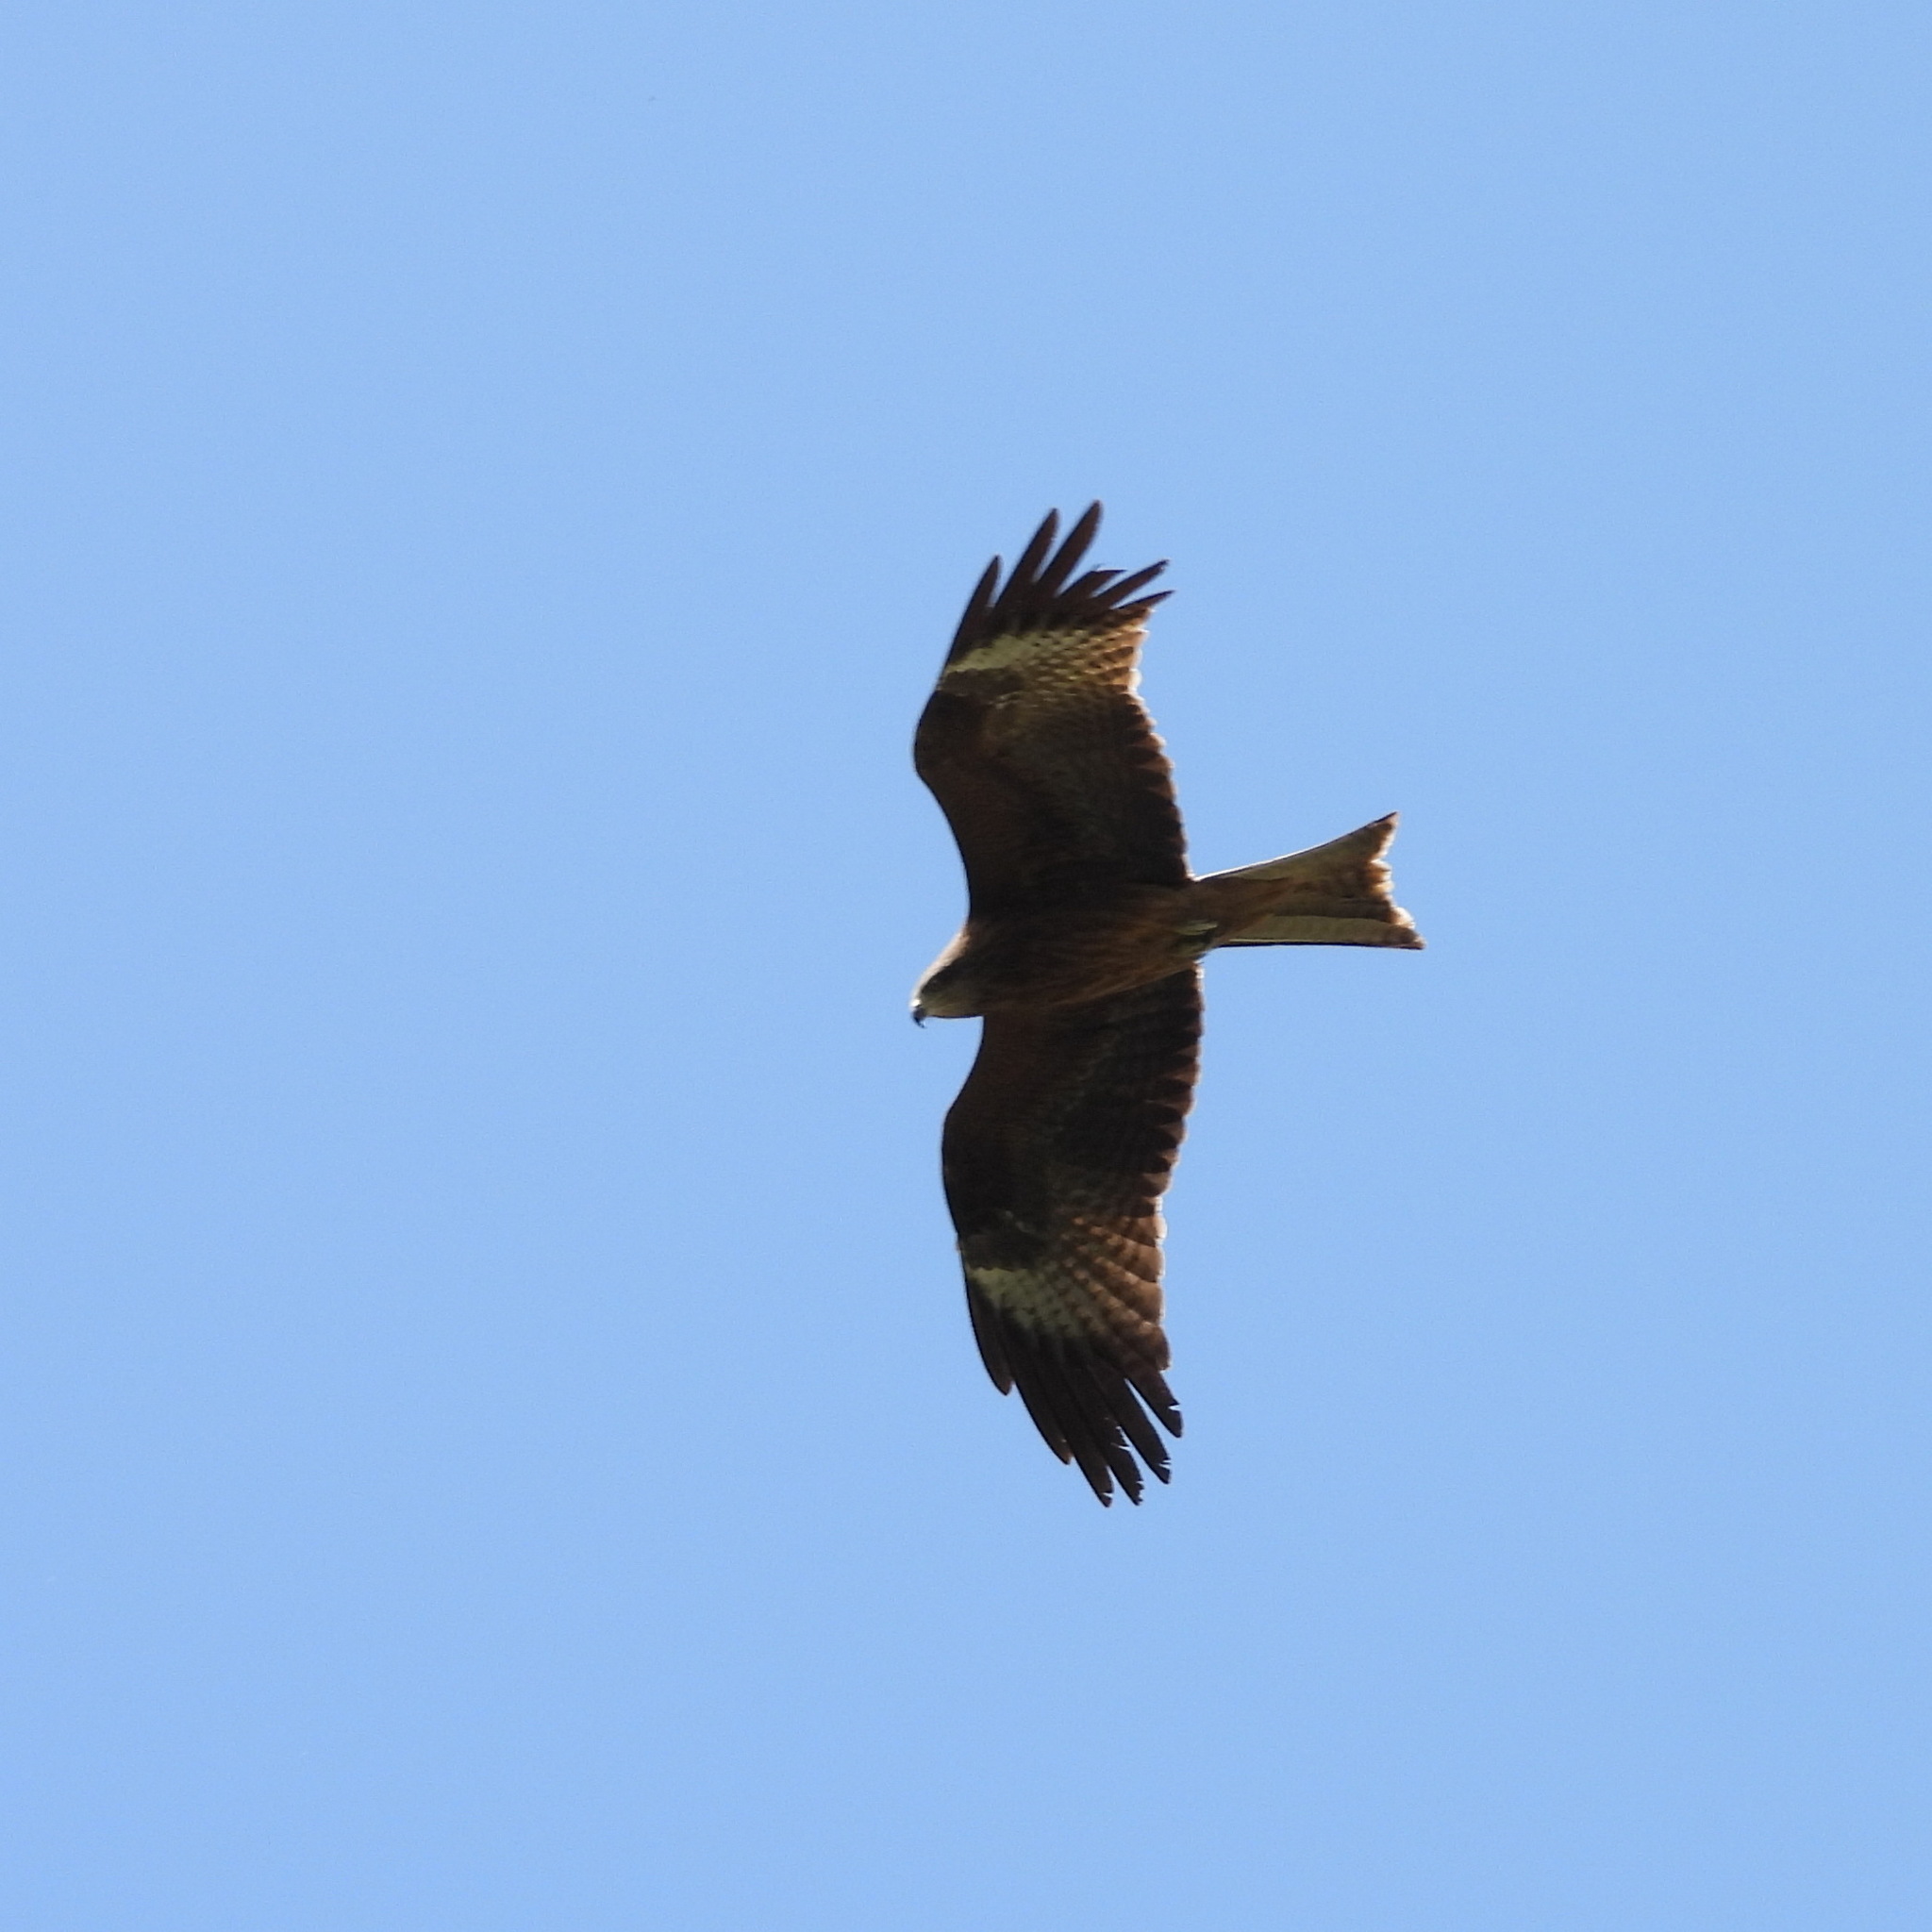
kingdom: Animalia
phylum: Chordata
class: Aves
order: Accipitriformes
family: Accipitridae
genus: Milvus
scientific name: Milvus migrans
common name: Black kite
